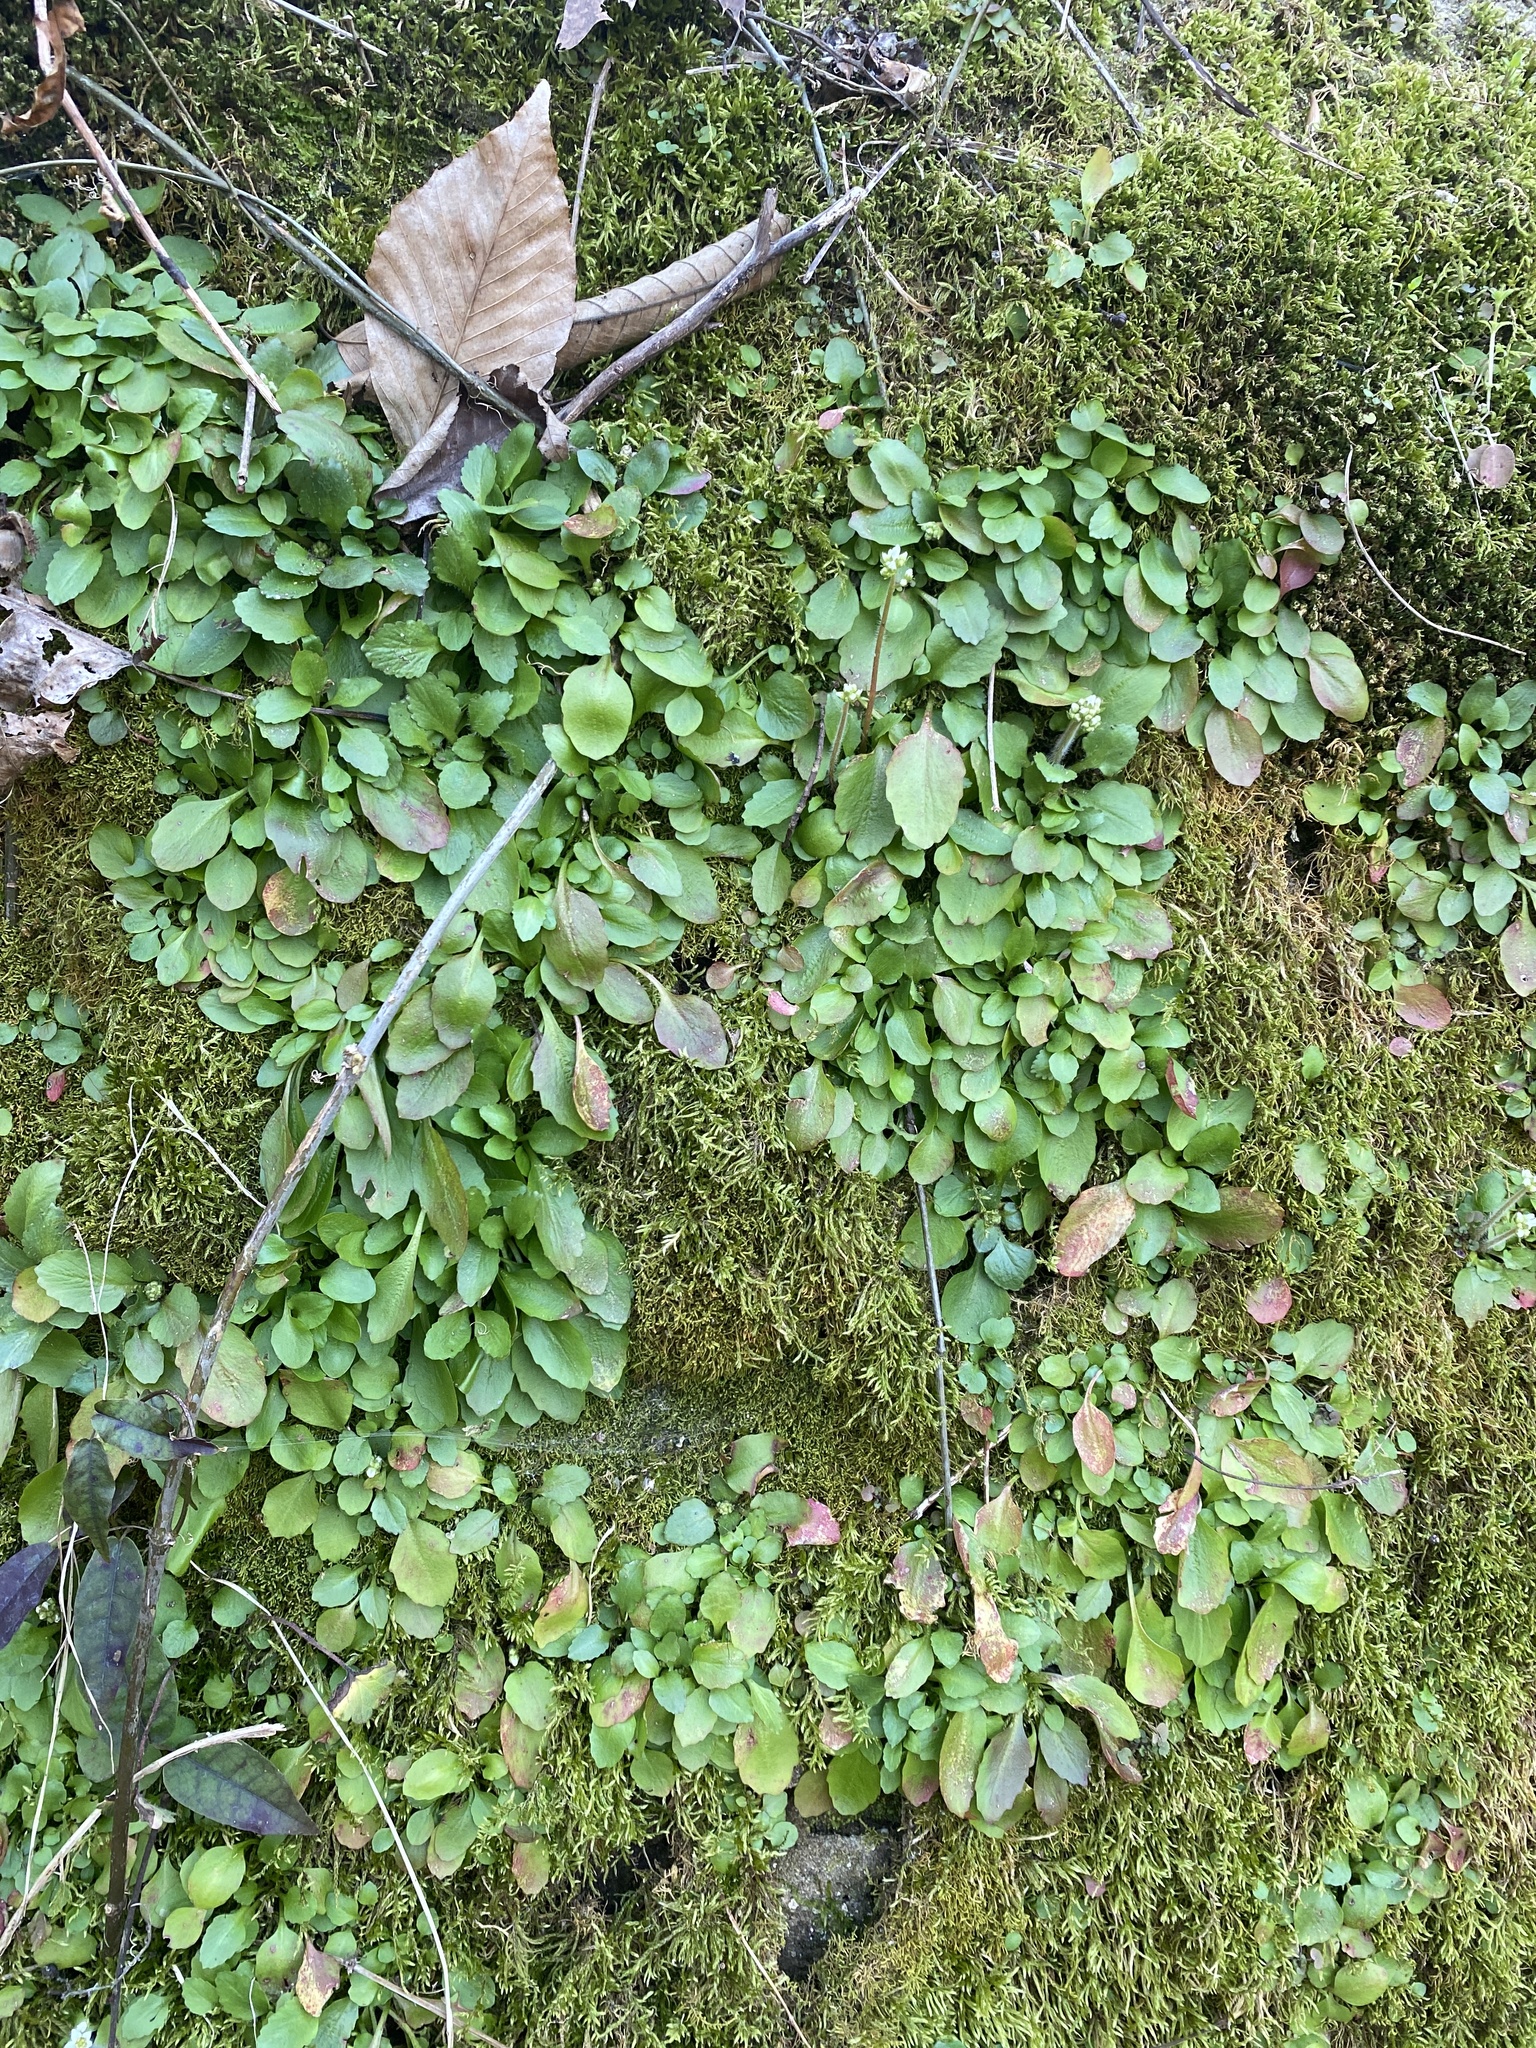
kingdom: Plantae
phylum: Tracheophyta
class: Magnoliopsida
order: Saxifragales
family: Saxifragaceae
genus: Micranthes
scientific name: Micranthes virginiensis
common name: Early saxifrage
